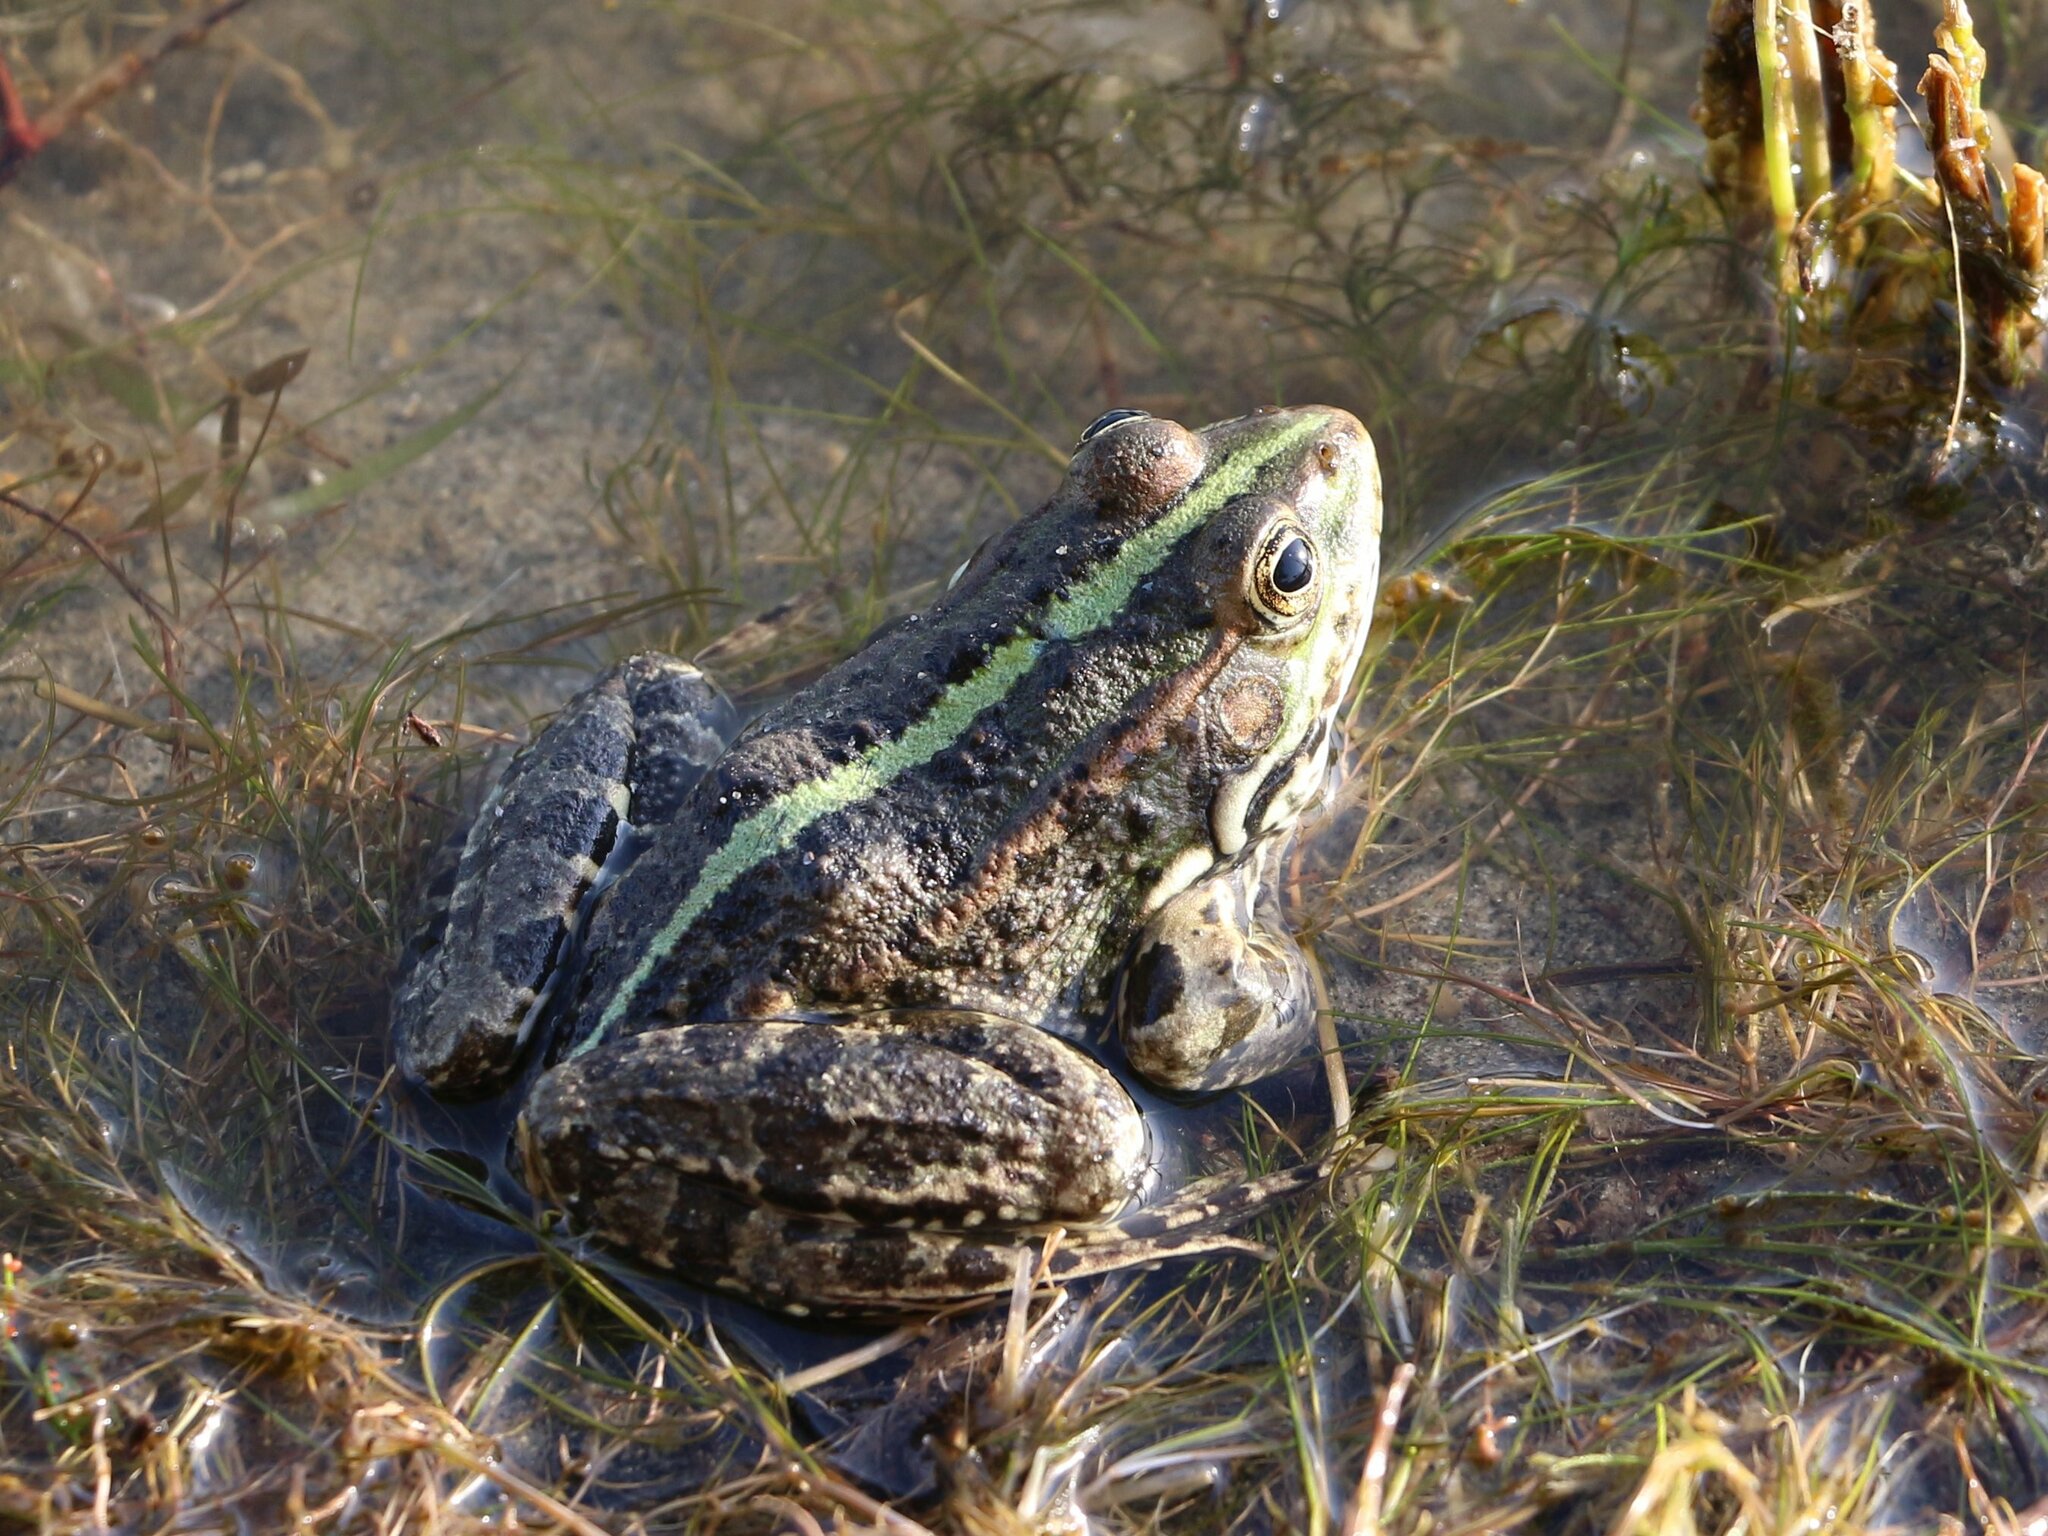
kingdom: Animalia
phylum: Chordata
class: Amphibia
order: Anura
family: Ranidae
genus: Pelophylax
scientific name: Pelophylax ridibundus
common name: Marsh frog
